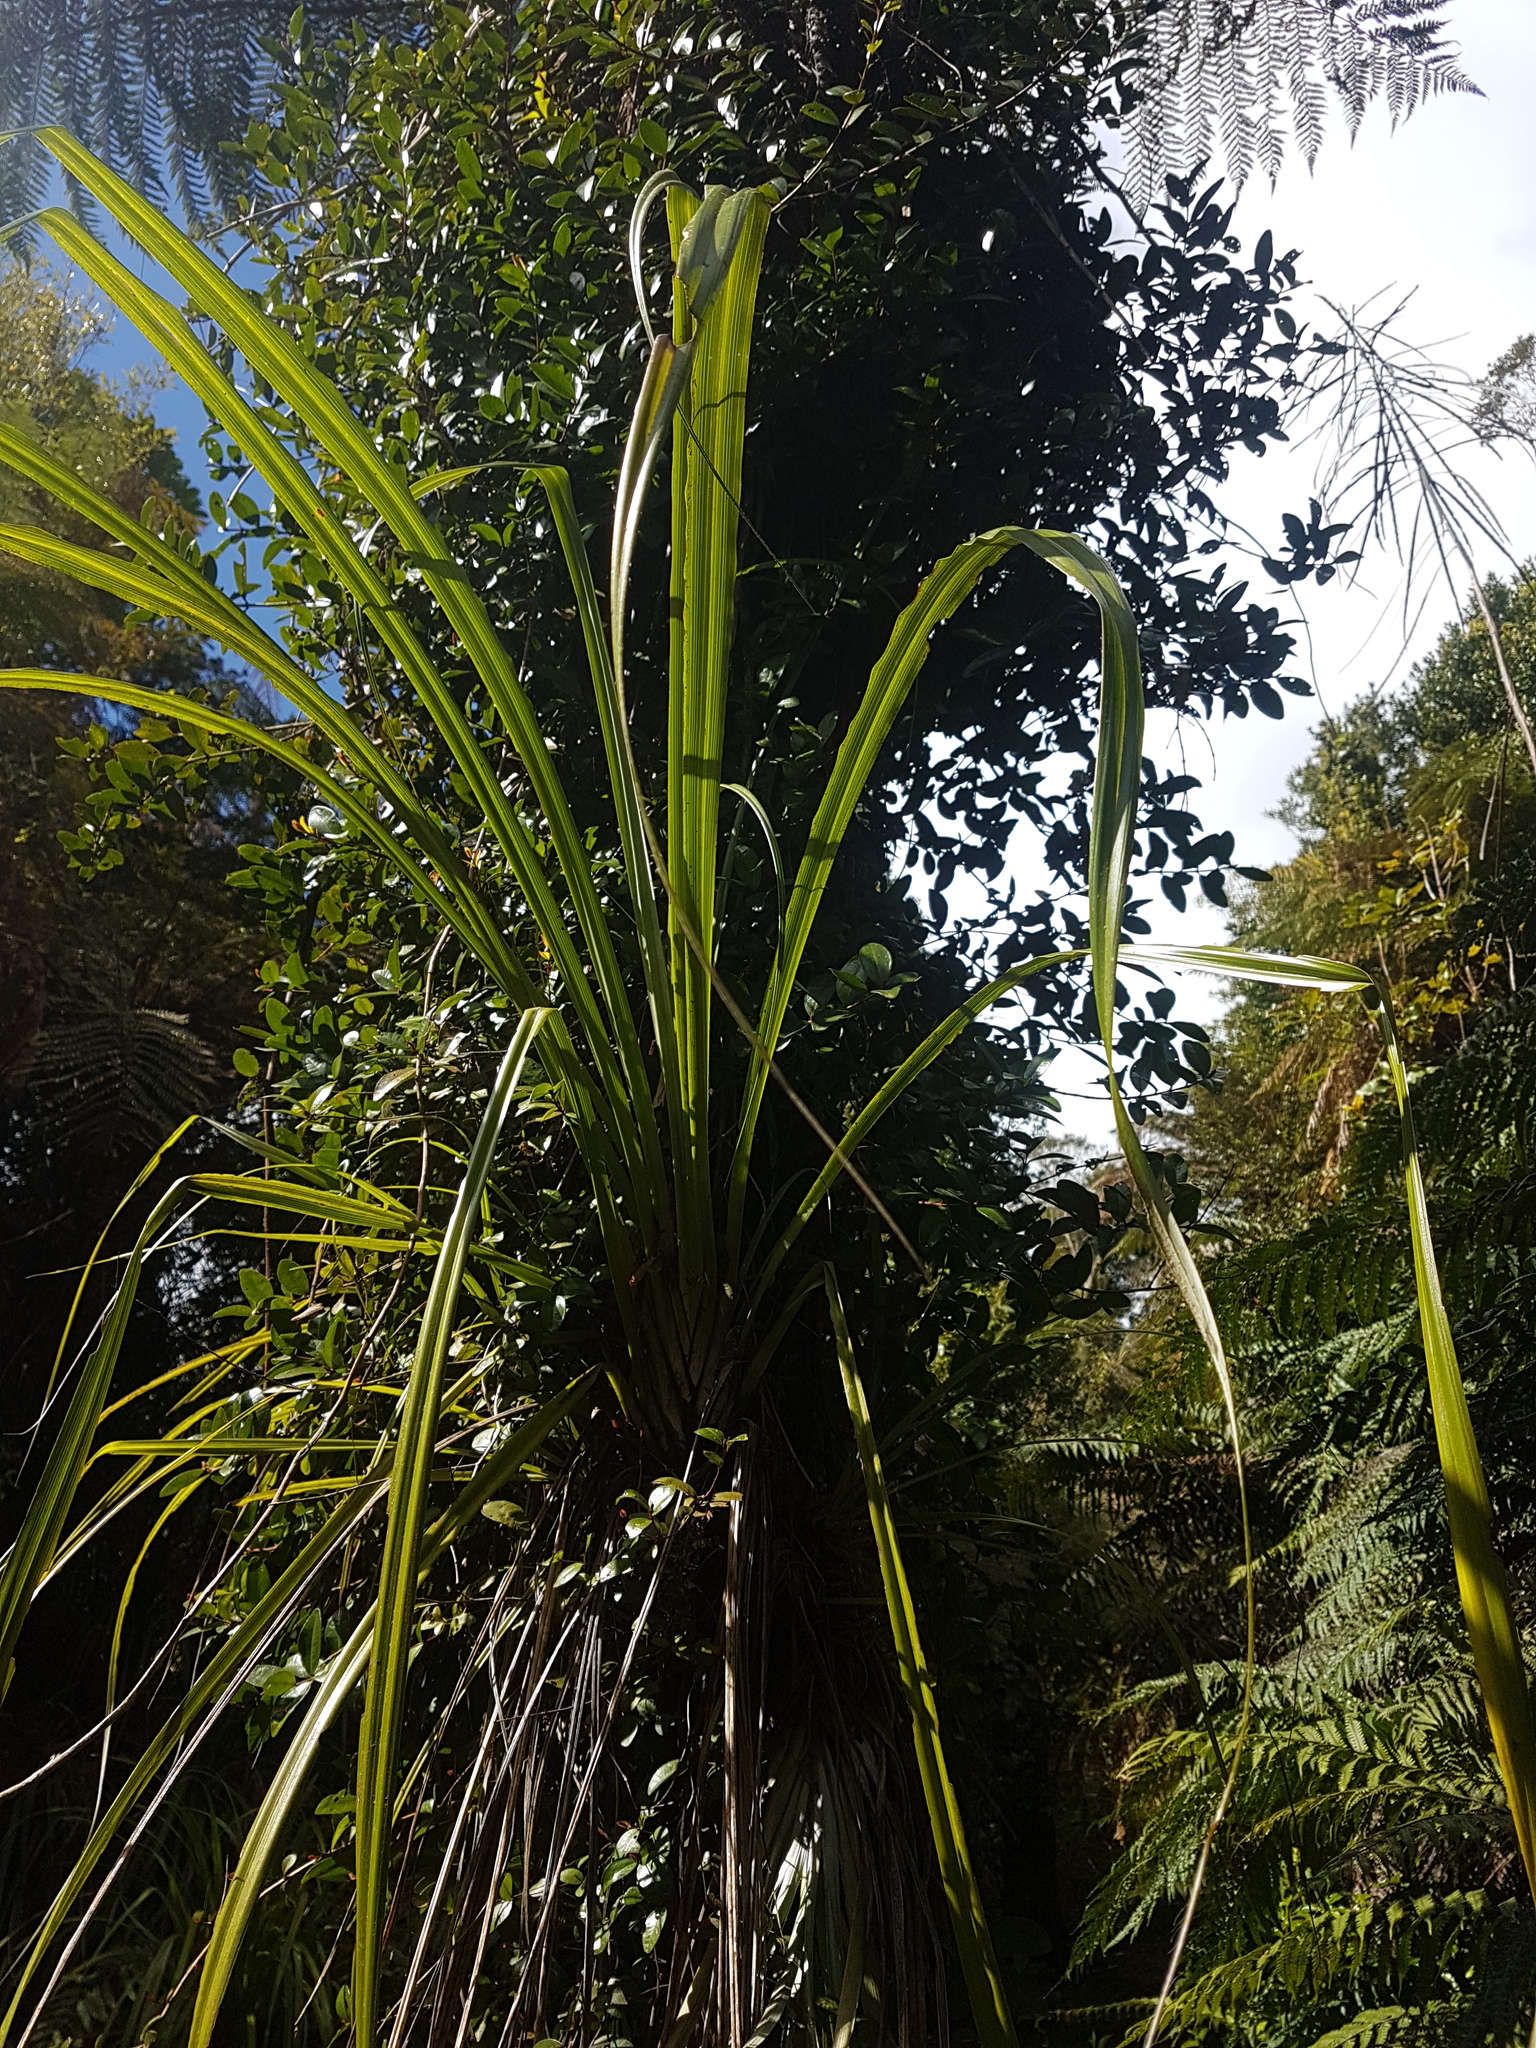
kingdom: Plantae
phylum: Tracheophyta
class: Liliopsida
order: Asparagales
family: Asparagaceae
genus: Cordyline
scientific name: Cordyline banksii
